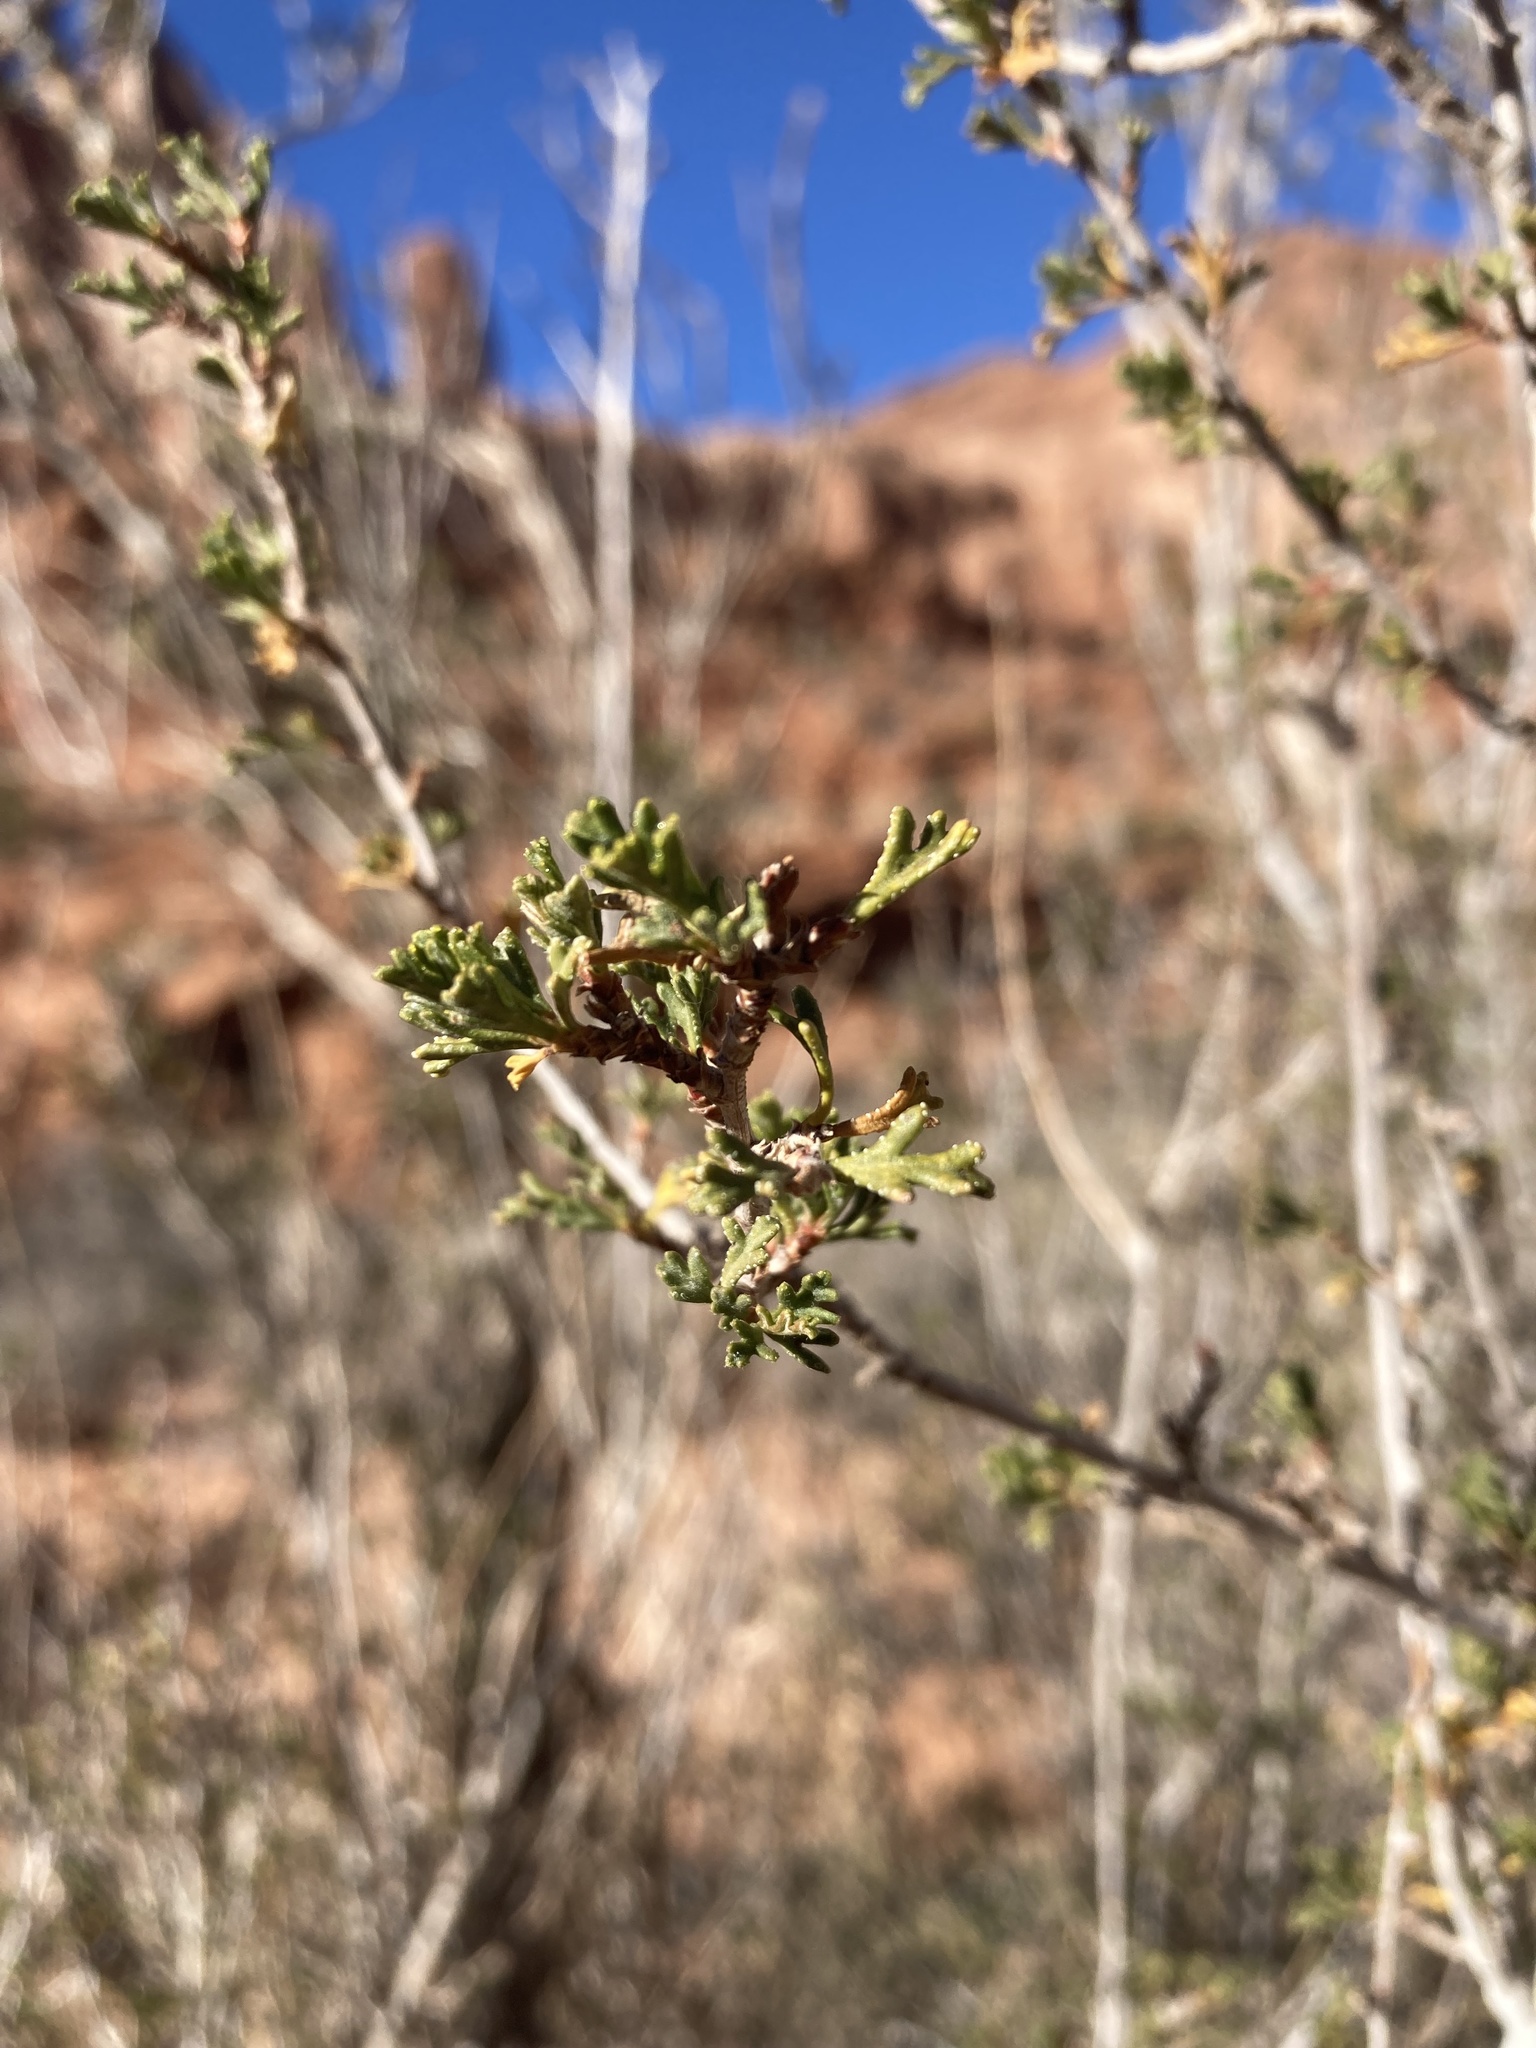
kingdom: Plantae
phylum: Tracheophyta
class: Magnoliopsida
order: Rosales
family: Rosaceae
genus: Purshia
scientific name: Purshia stansburiana
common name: Stansbury's cliffrose
